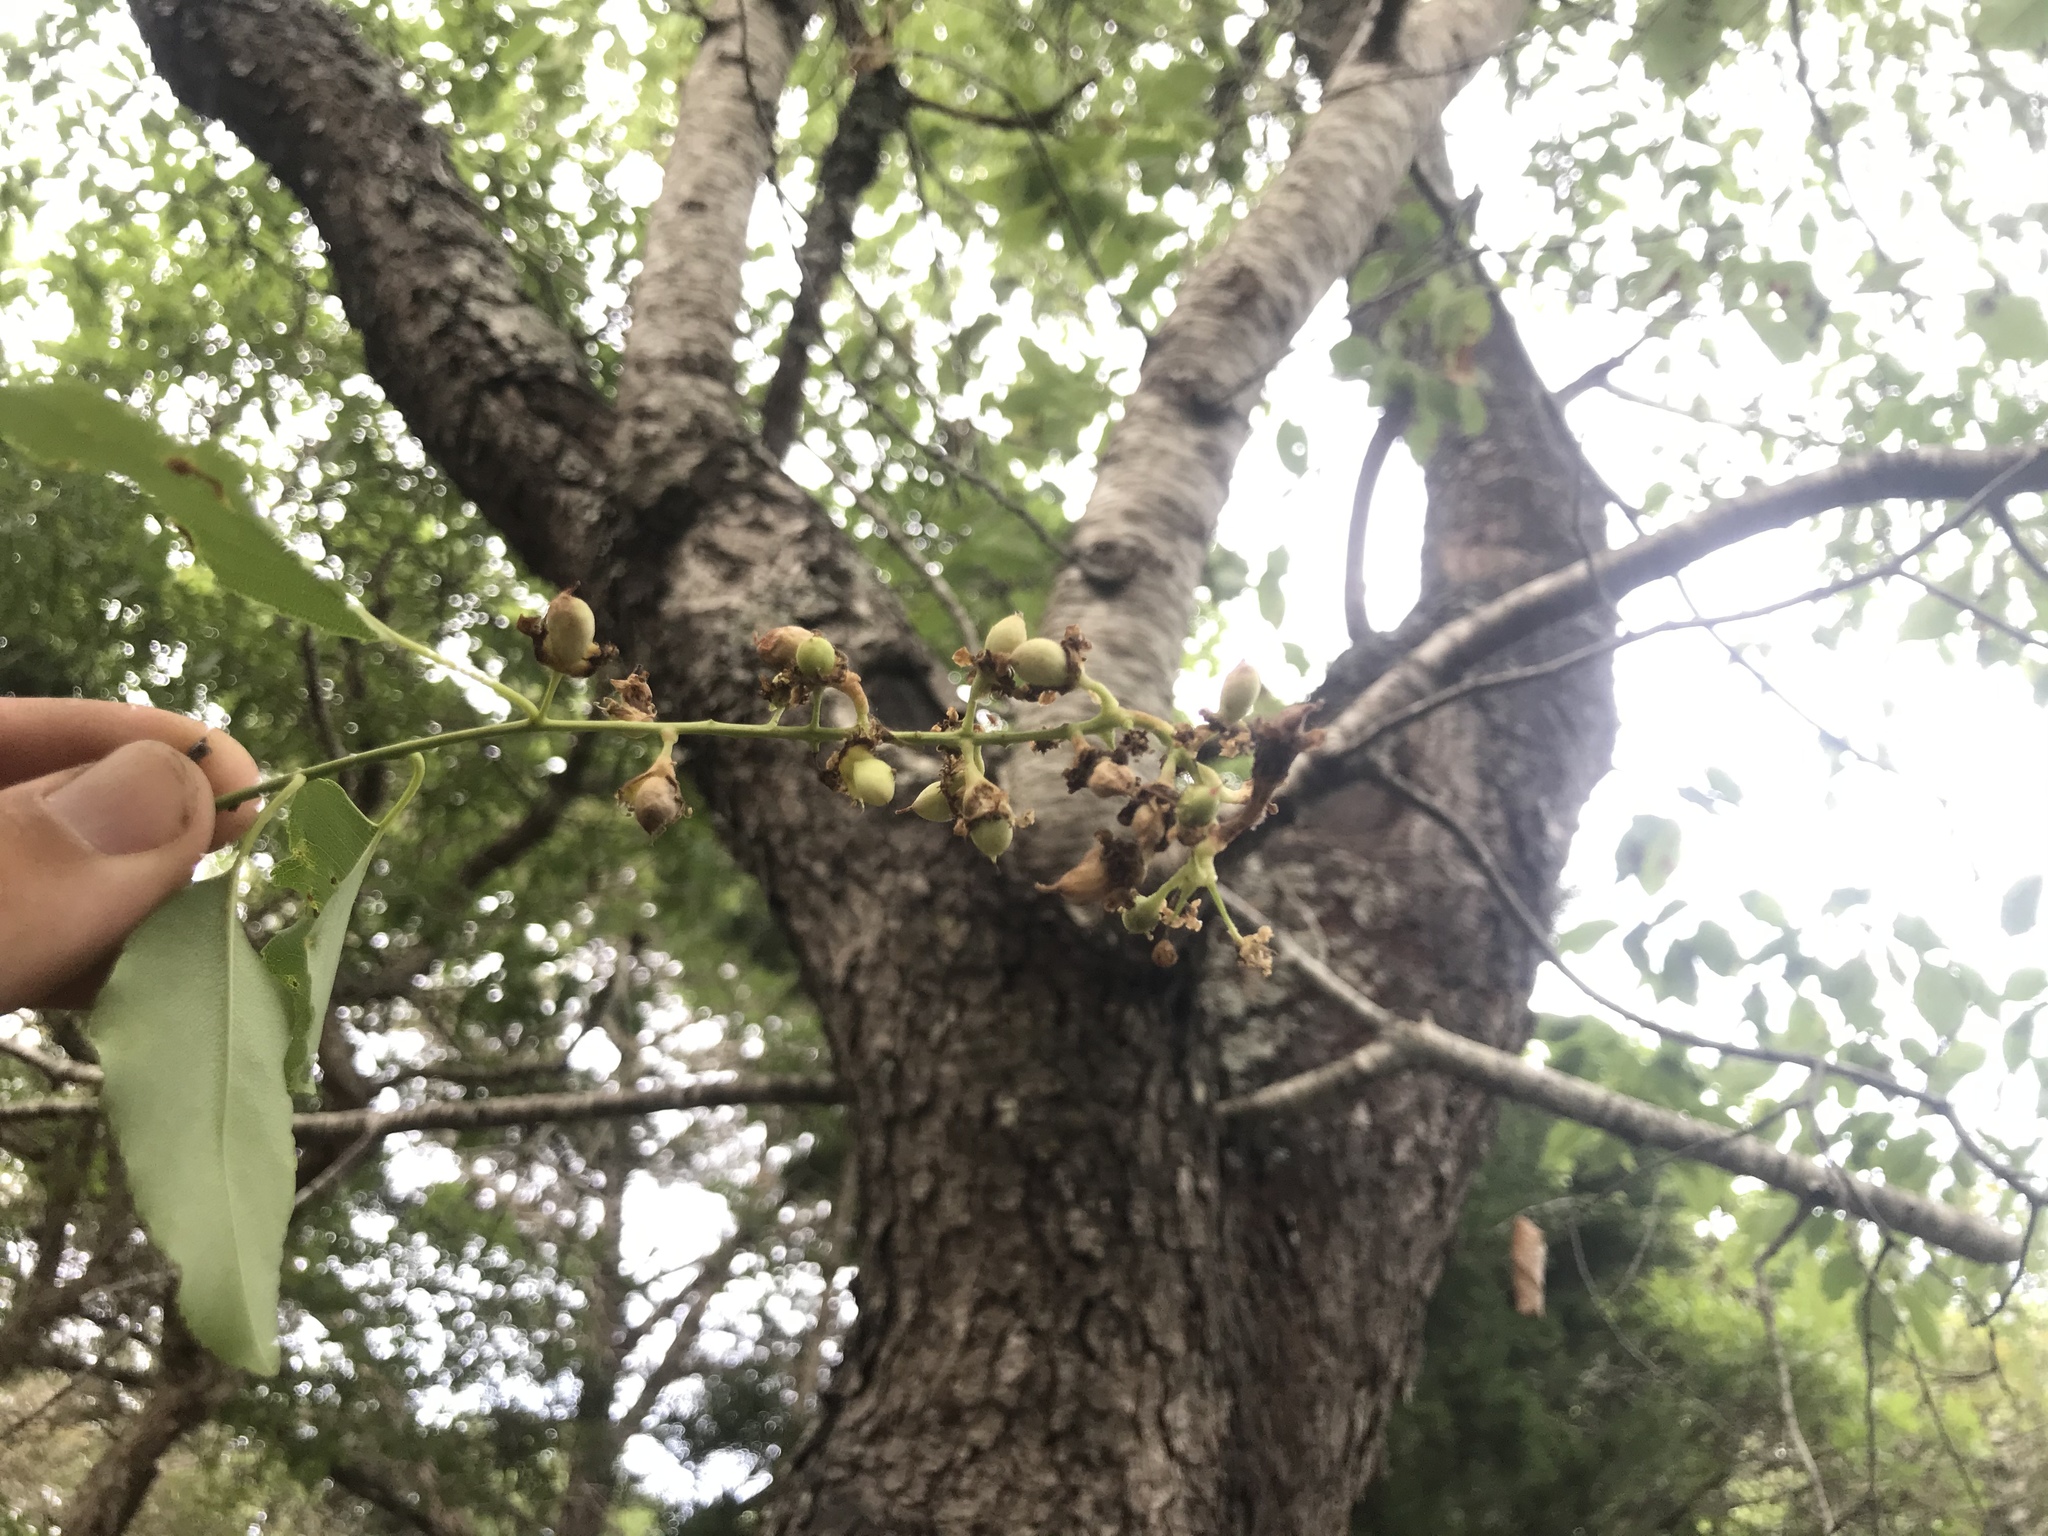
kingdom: Plantae
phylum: Tracheophyta
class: Magnoliopsida
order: Rosales
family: Rosaceae
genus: Prunus
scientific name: Prunus serotina
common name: Black cherry
